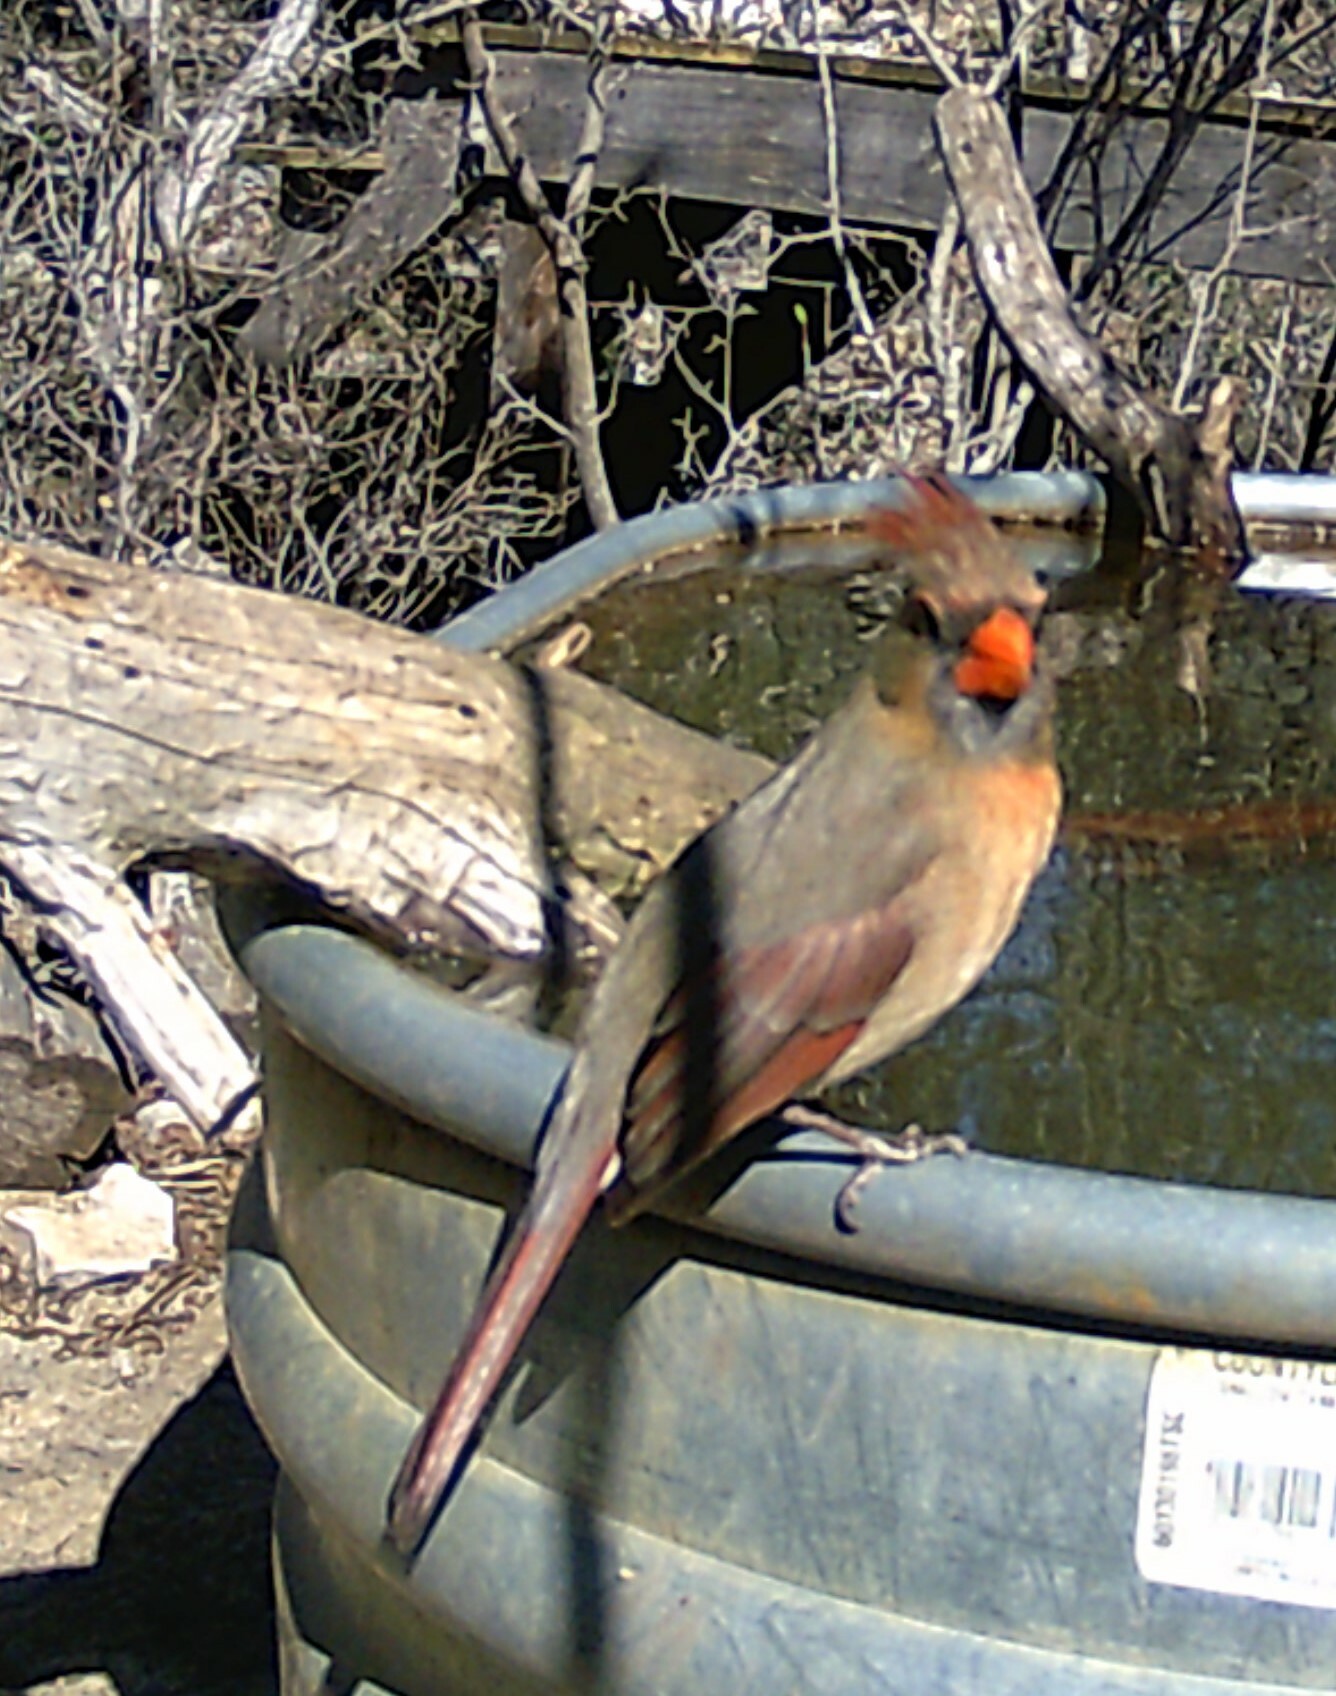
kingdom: Animalia
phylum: Chordata
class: Aves
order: Passeriformes
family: Cardinalidae
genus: Cardinalis
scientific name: Cardinalis cardinalis
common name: Northern cardinal
